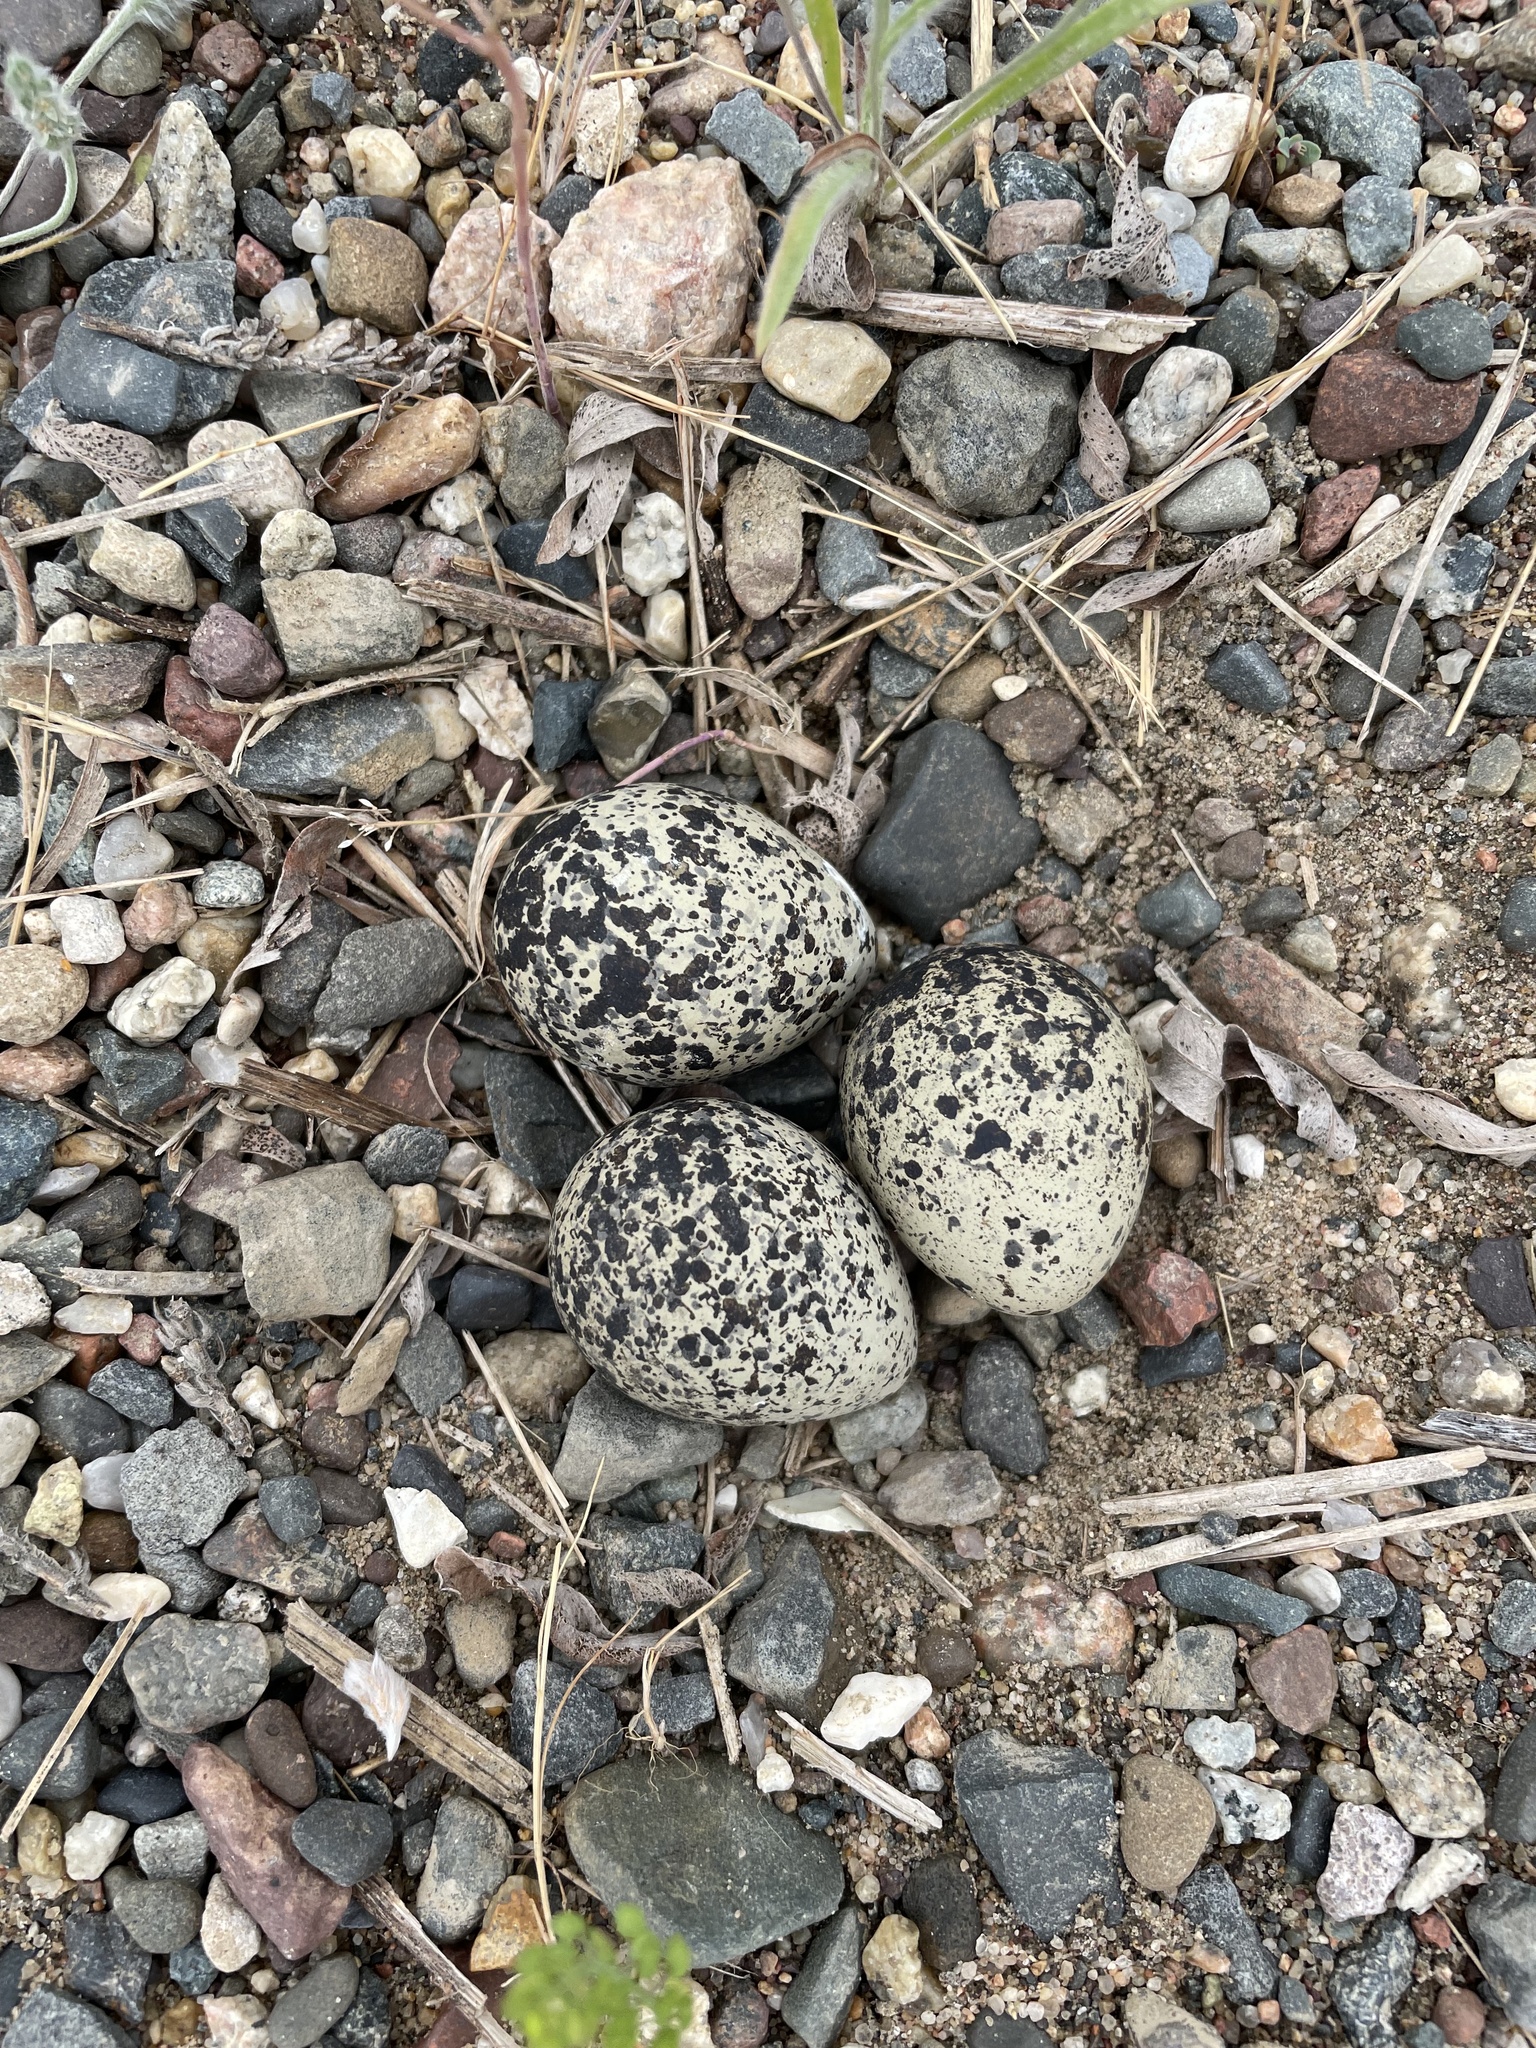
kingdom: Animalia
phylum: Chordata
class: Aves
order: Charadriiformes
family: Charadriidae
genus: Charadrius
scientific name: Charadrius vociferus
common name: Killdeer
